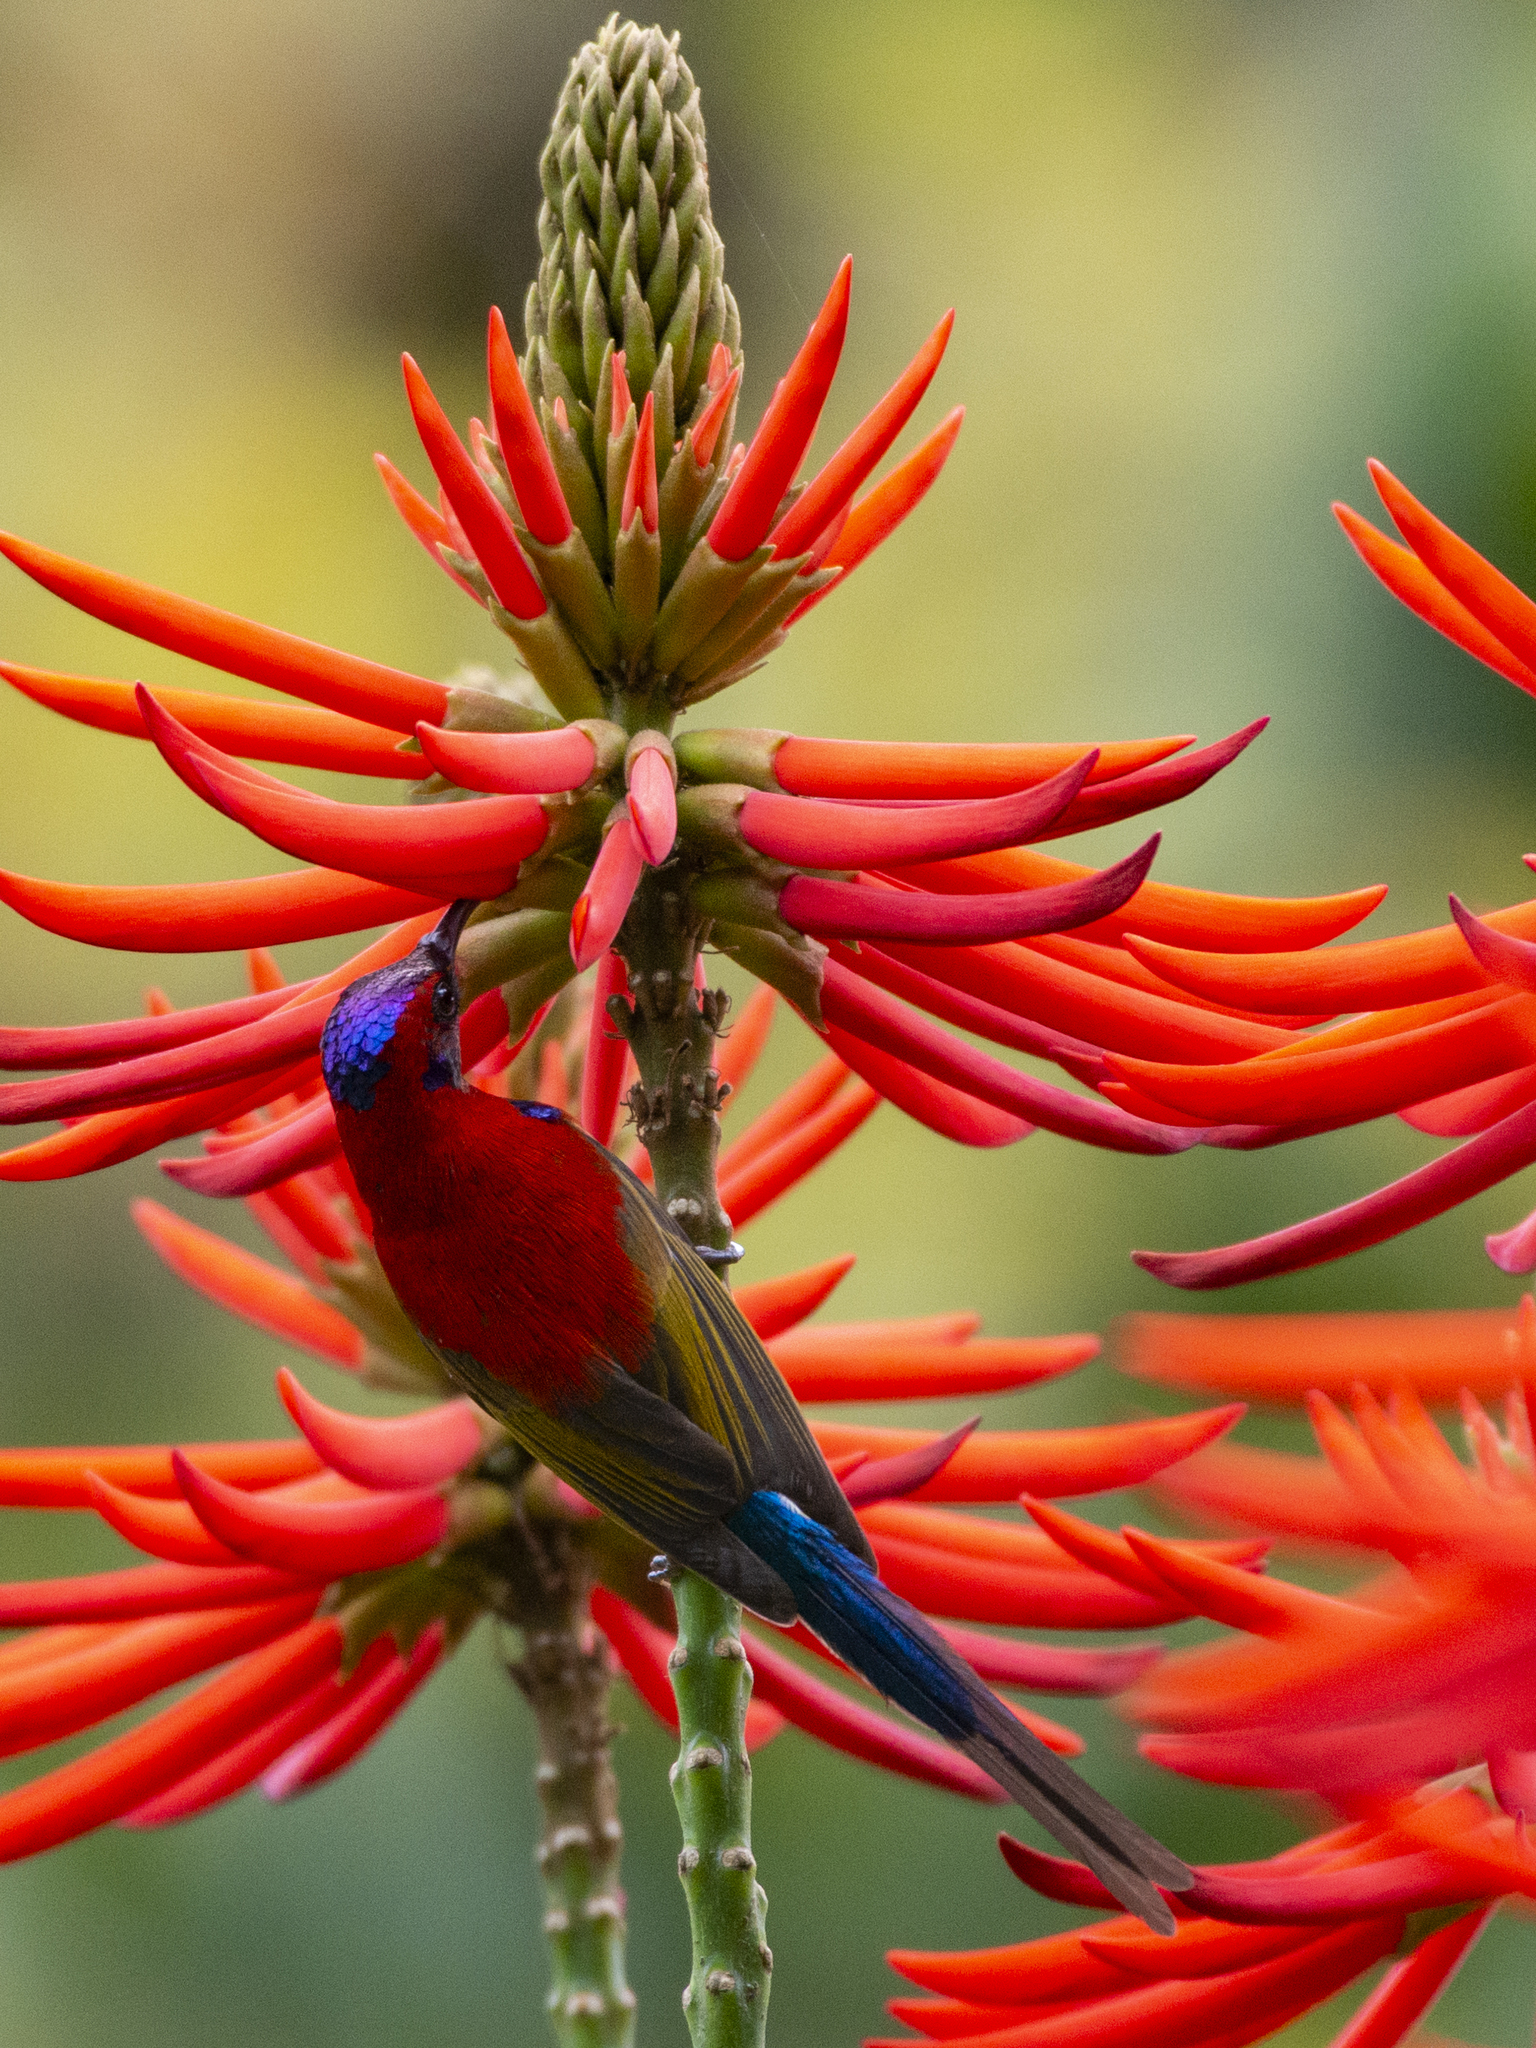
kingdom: Animalia
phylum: Chordata
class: Aves
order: Passeriformes
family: Nectariniidae
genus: Aethopyga
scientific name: Aethopyga gouldiae
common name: Mrs. gould's sunbird
